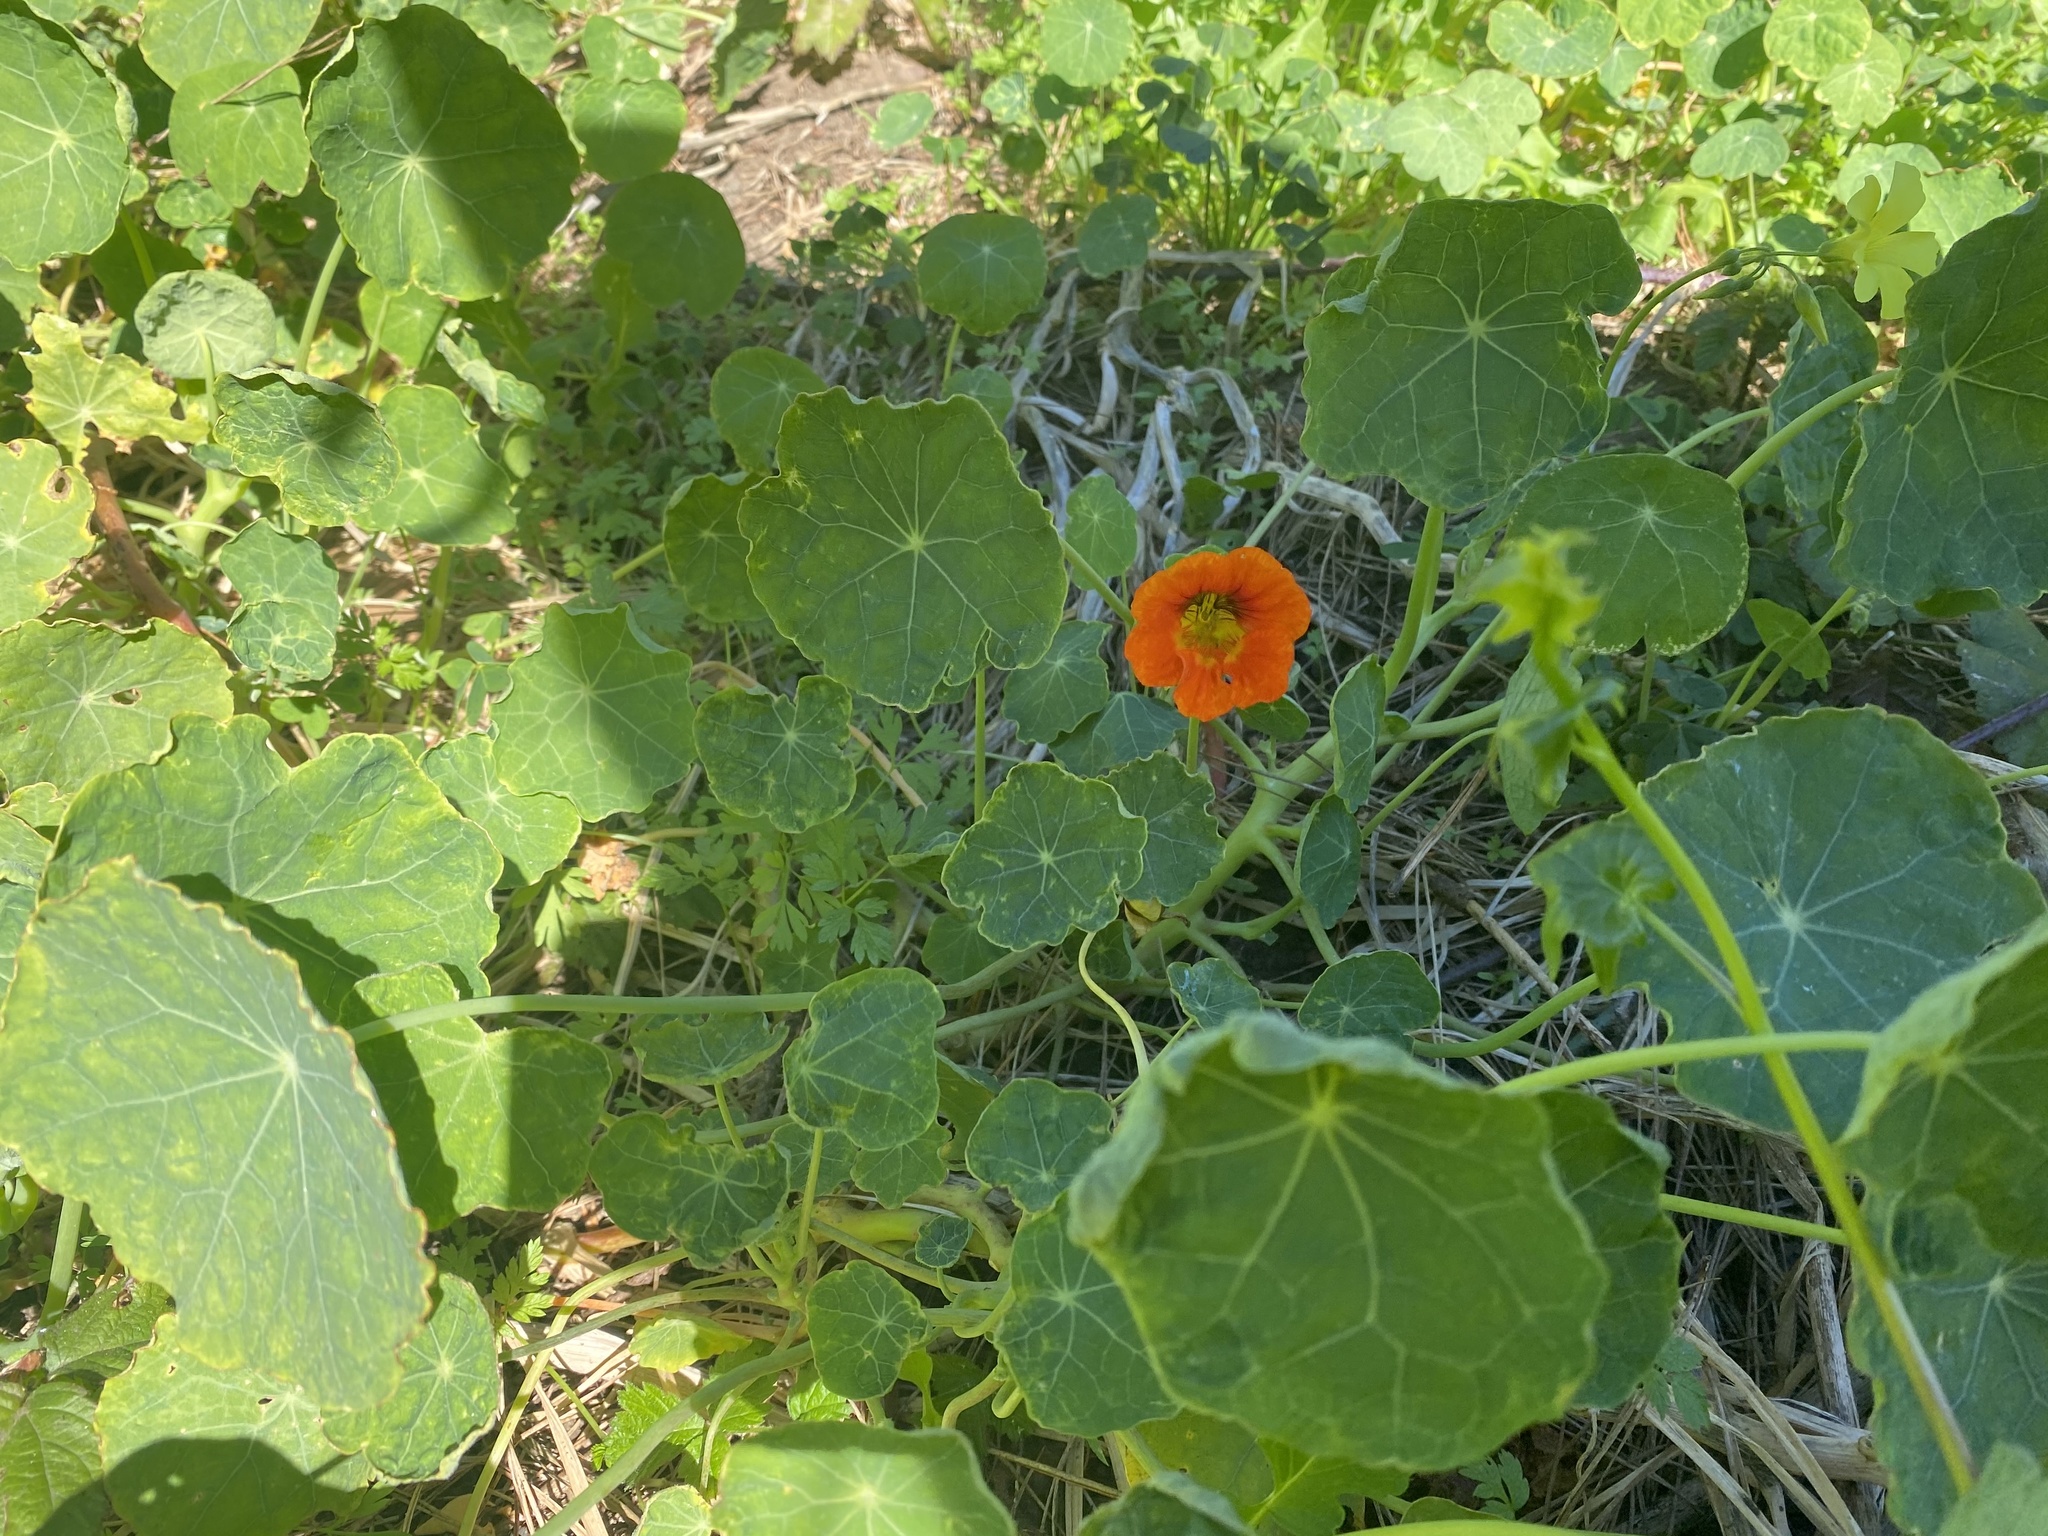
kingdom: Plantae
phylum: Tracheophyta
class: Magnoliopsida
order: Brassicales
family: Tropaeolaceae
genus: Tropaeolum
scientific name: Tropaeolum majus
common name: Nasturtium
